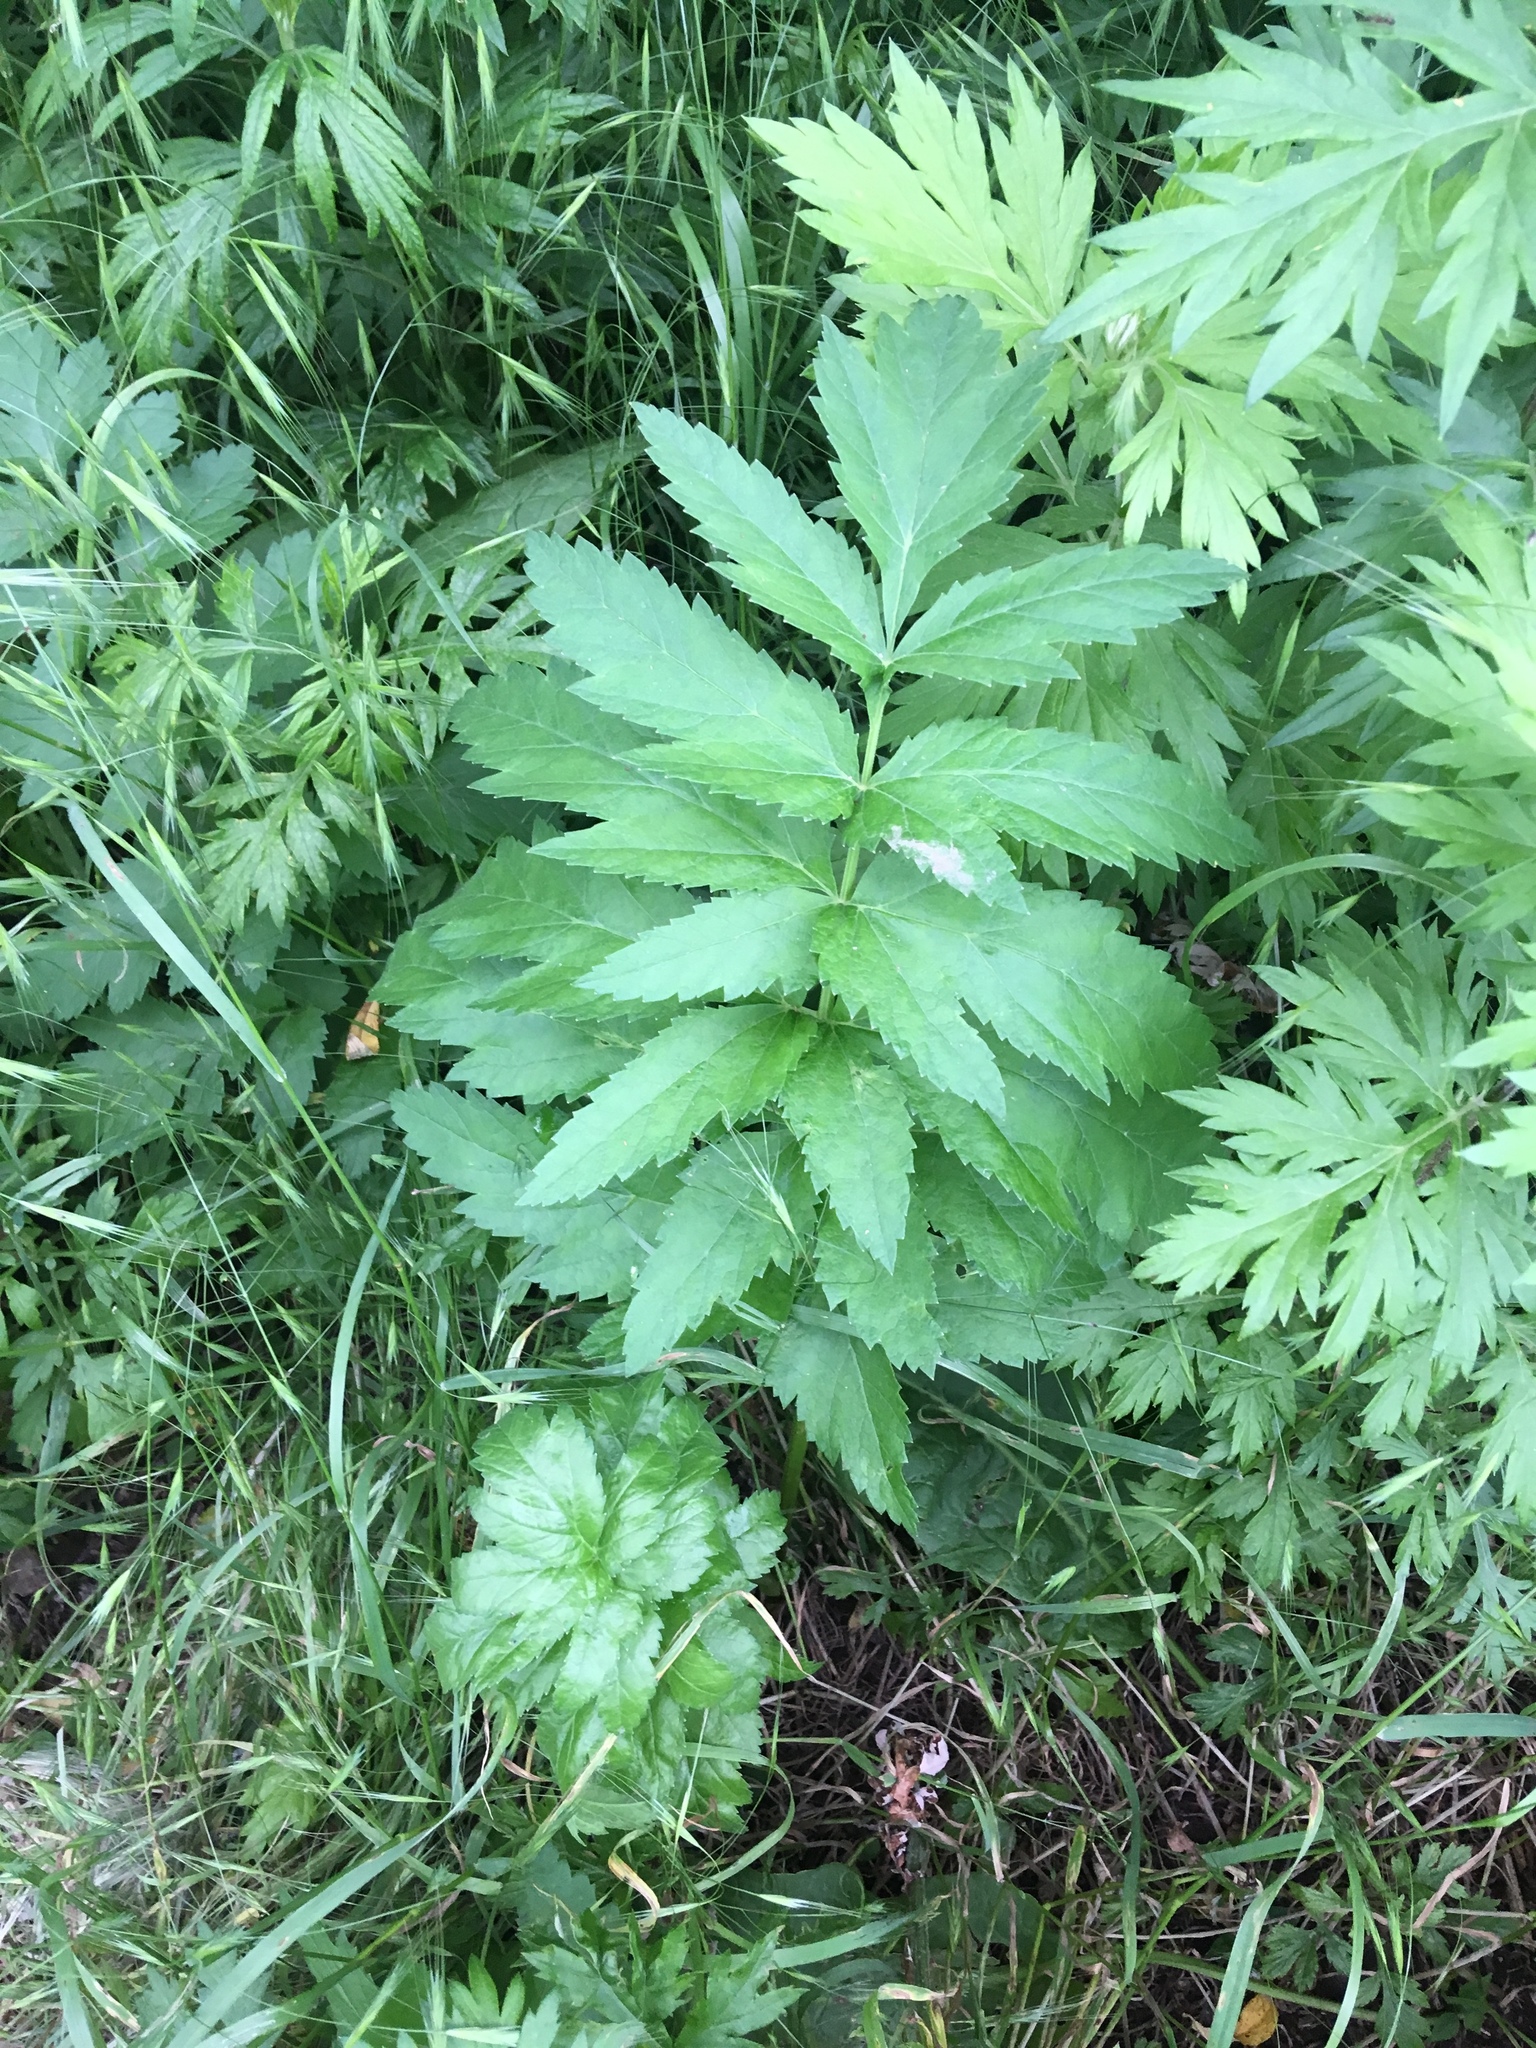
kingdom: Plantae
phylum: Tracheophyta
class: Magnoliopsida
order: Apiales
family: Apiaceae
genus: Pastinaca
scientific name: Pastinaca sativa
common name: Wild parsnip
